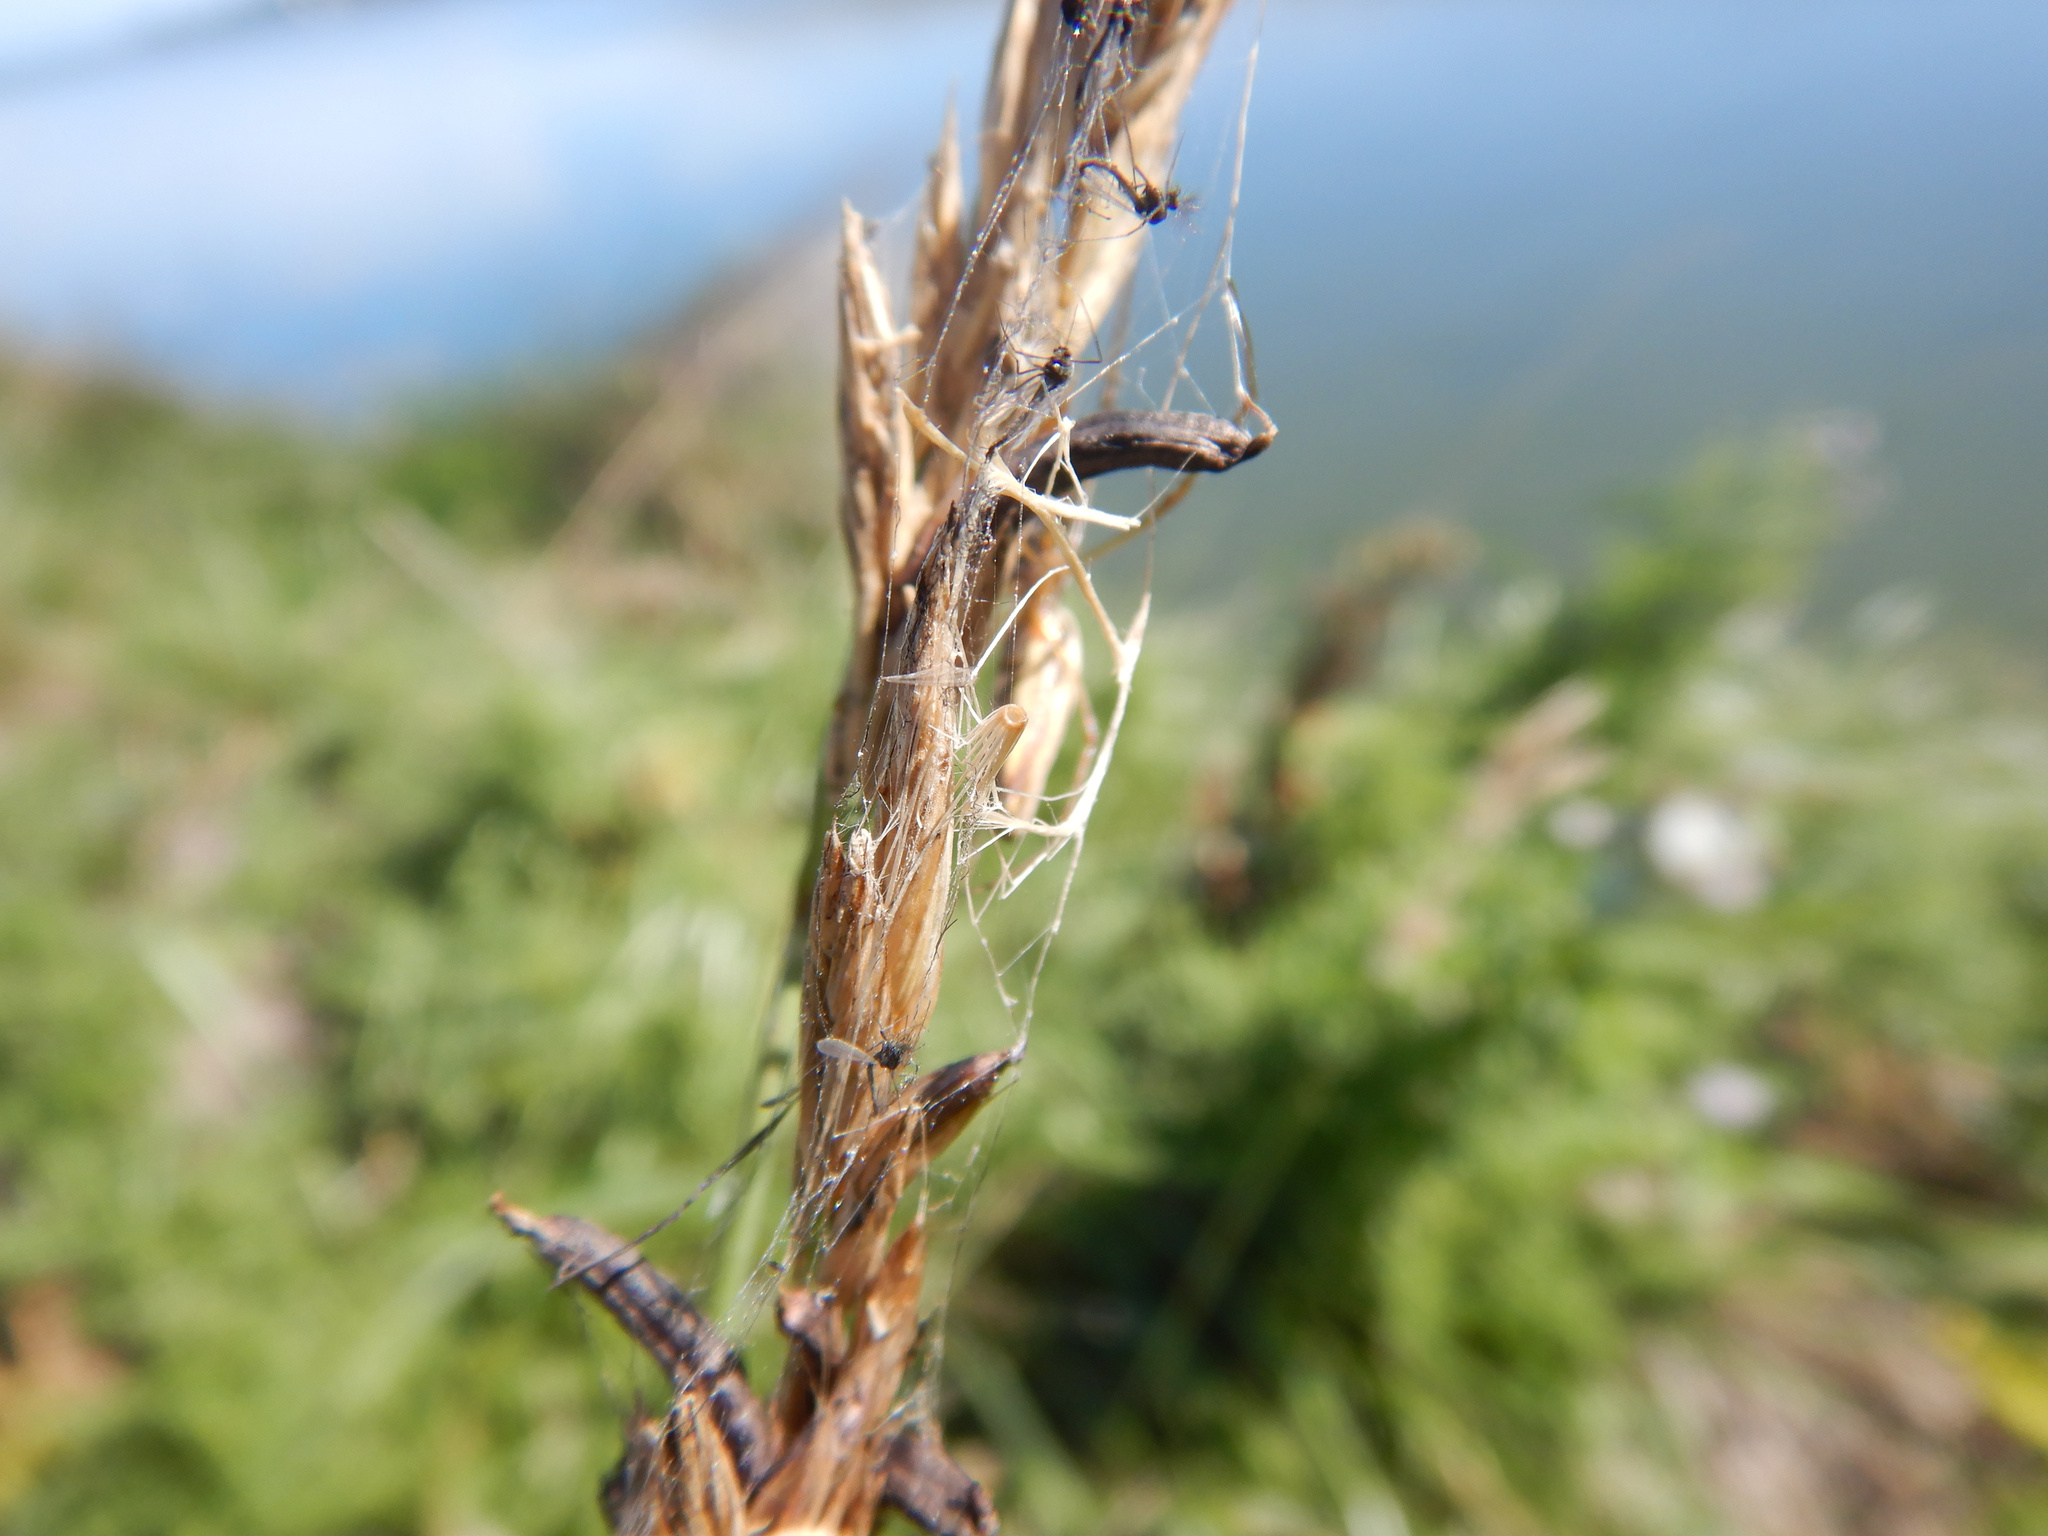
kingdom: Fungi
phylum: Ascomycota
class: Sordariomycetes
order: Hypocreales
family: Clavicipitaceae
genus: Claviceps
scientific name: Claviceps purpurea
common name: Rye ergot
